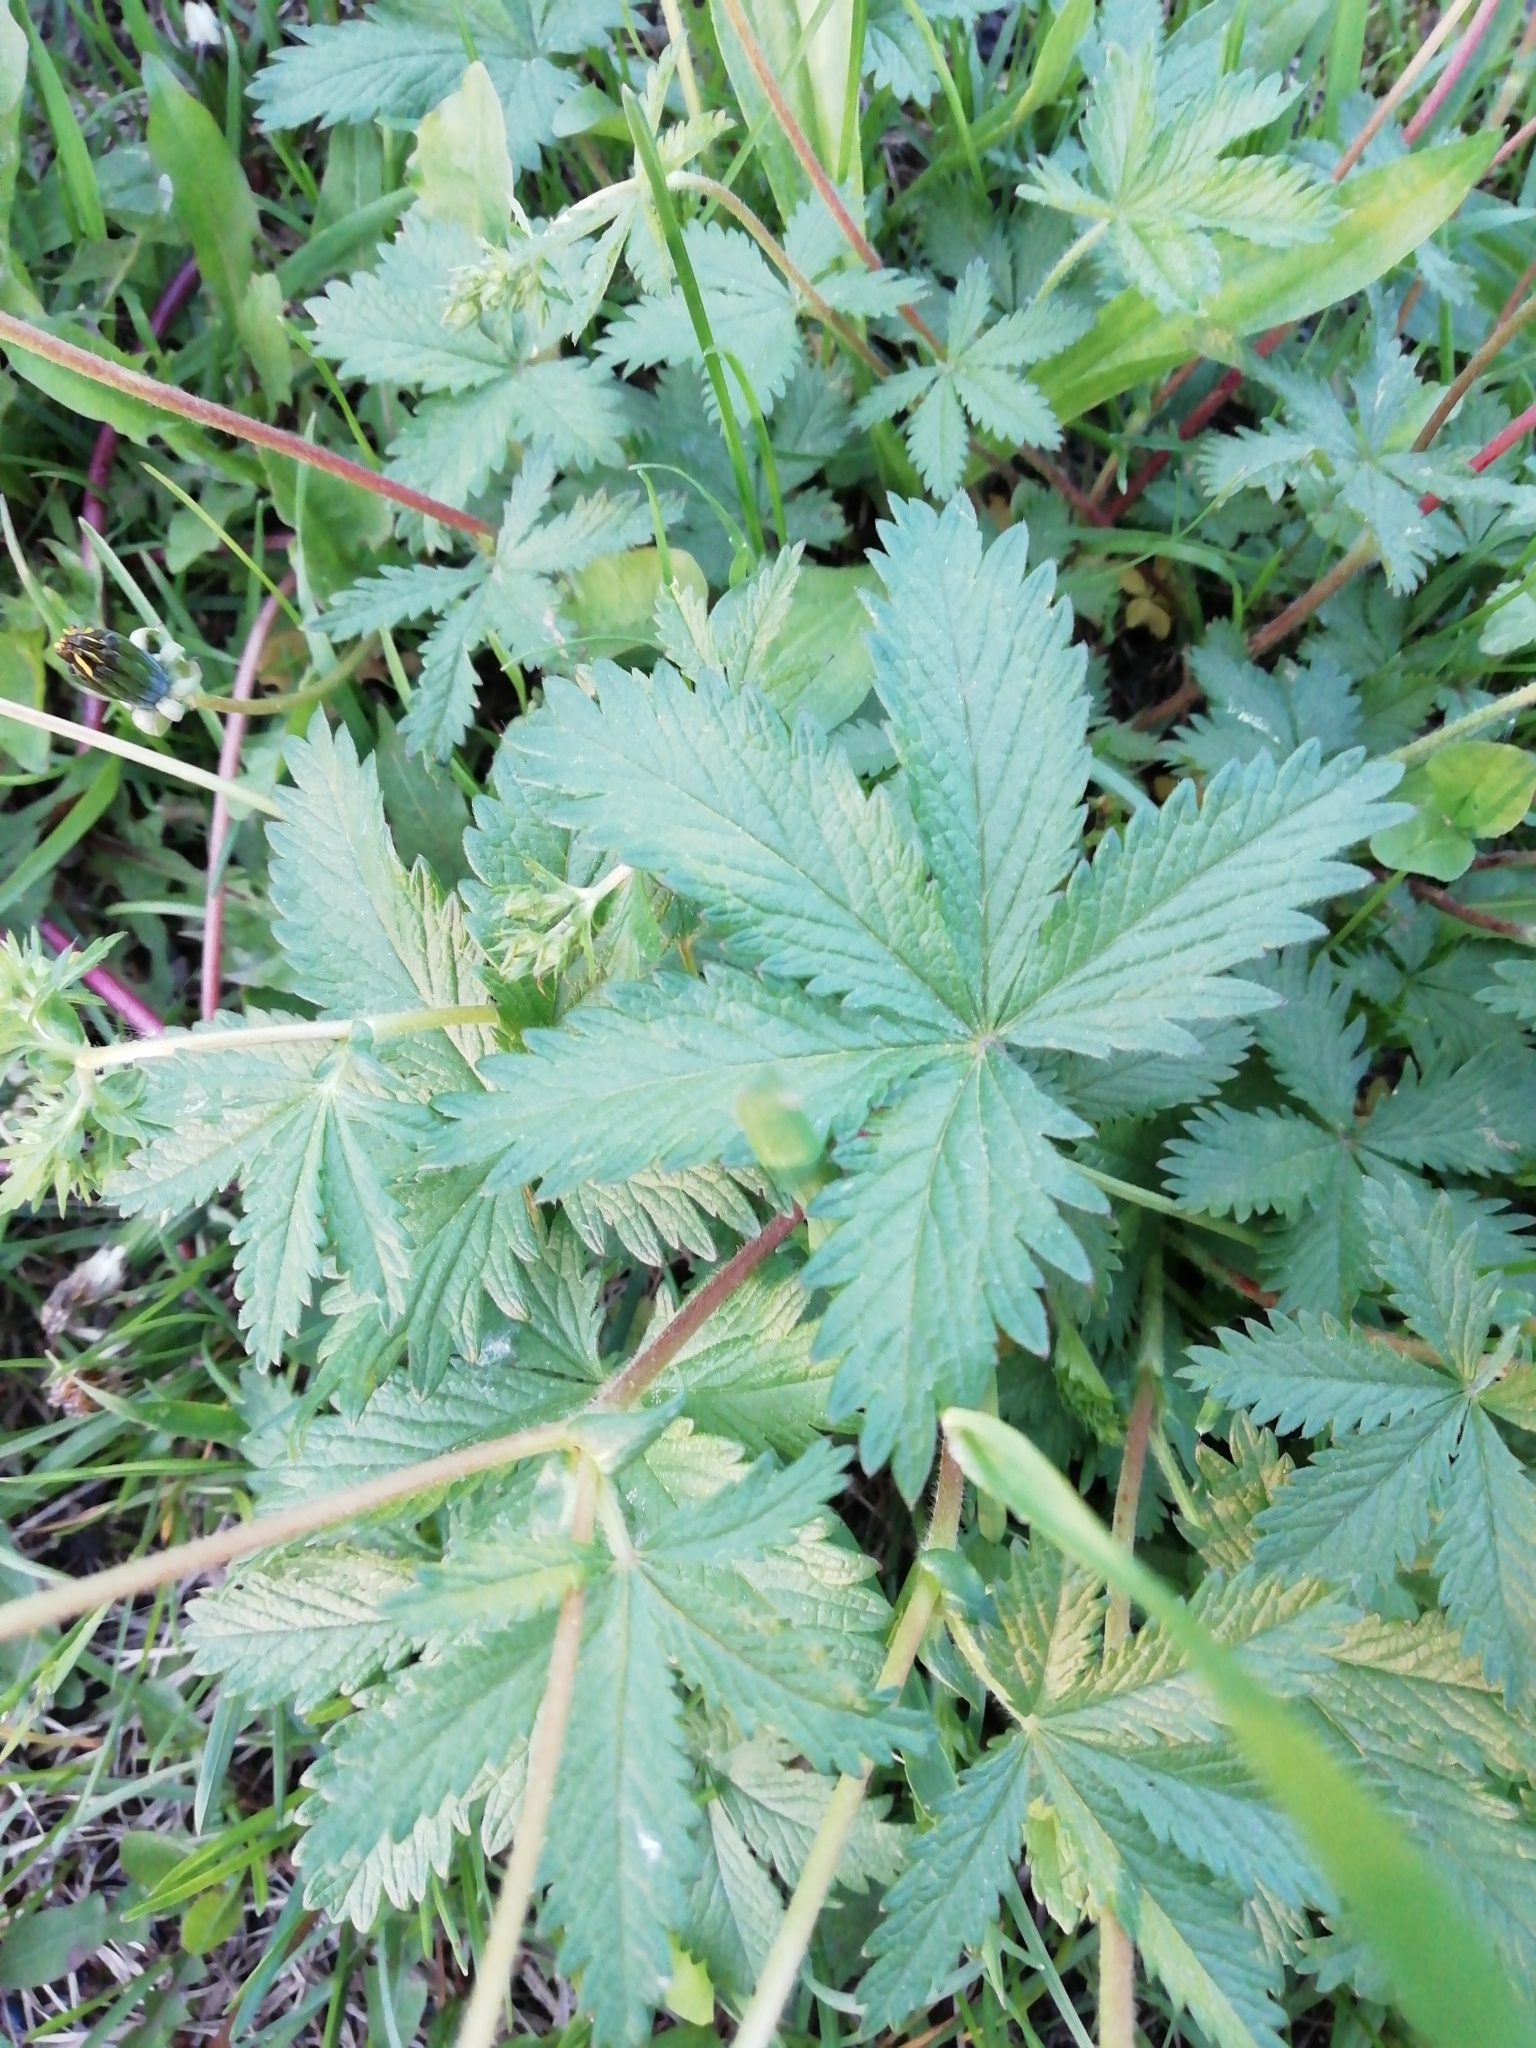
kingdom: Plantae
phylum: Tracheophyta
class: Magnoliopsida
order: Rosales
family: Rosaceae
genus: Potentilla
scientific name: Potentilla chrysantha
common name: Thuringian cinquefoil
